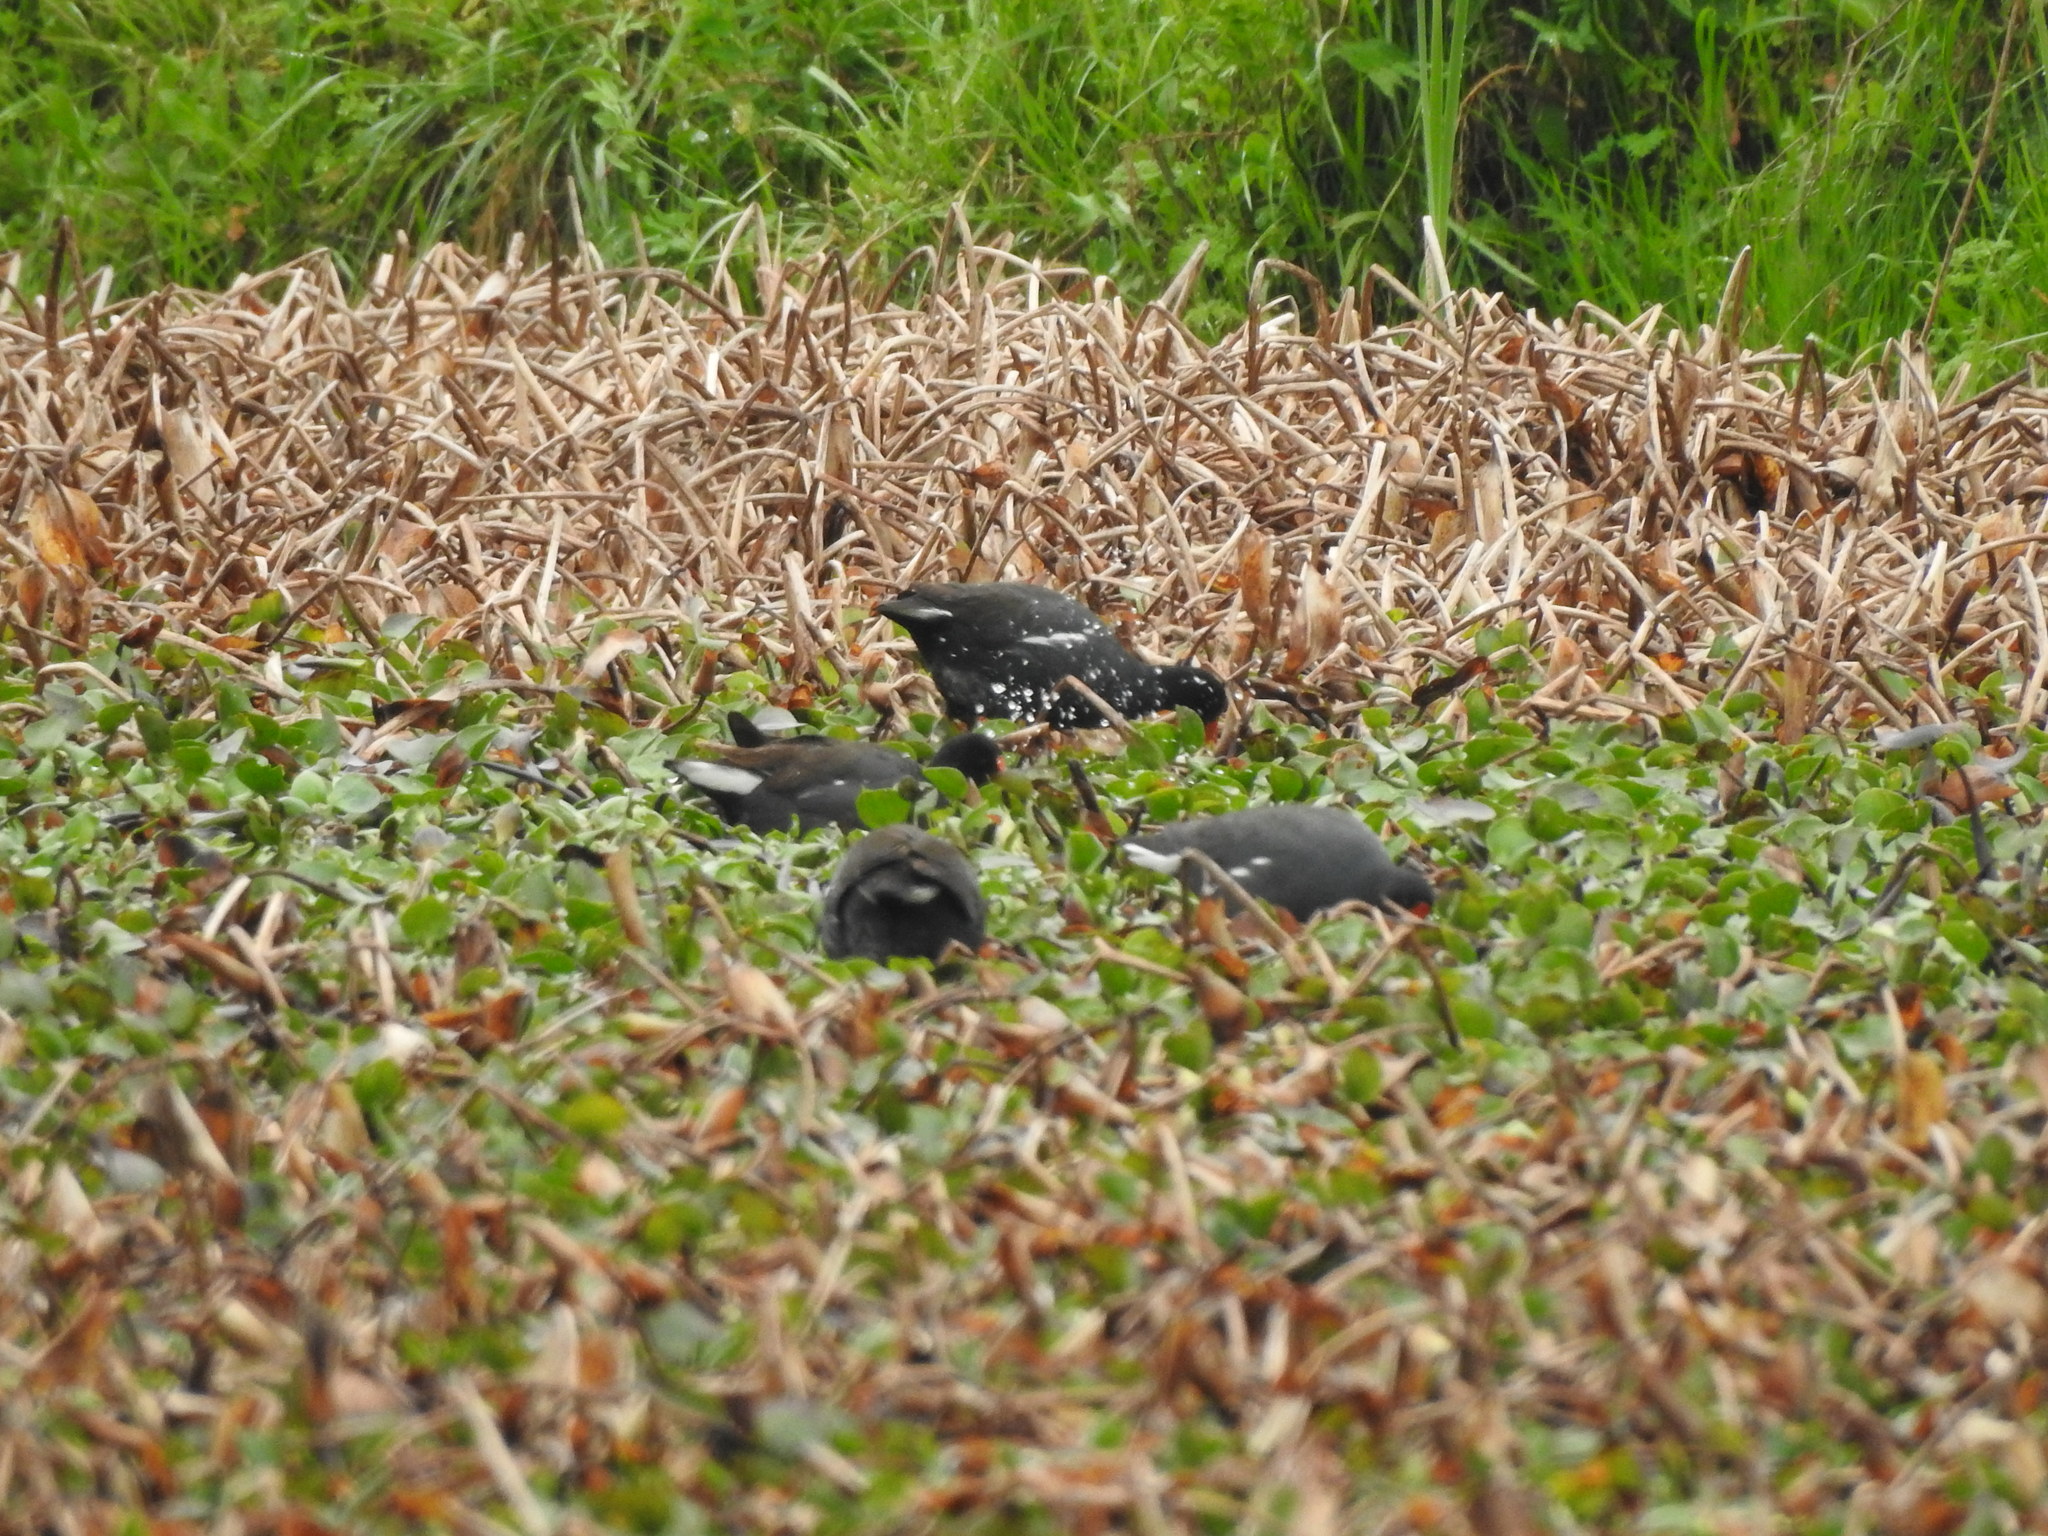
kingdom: Animalia
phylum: Chordata
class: Aves
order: Gruiformes
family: Rallidae
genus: Gallinula
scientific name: Gallinula chloropus
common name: Common moorhen
